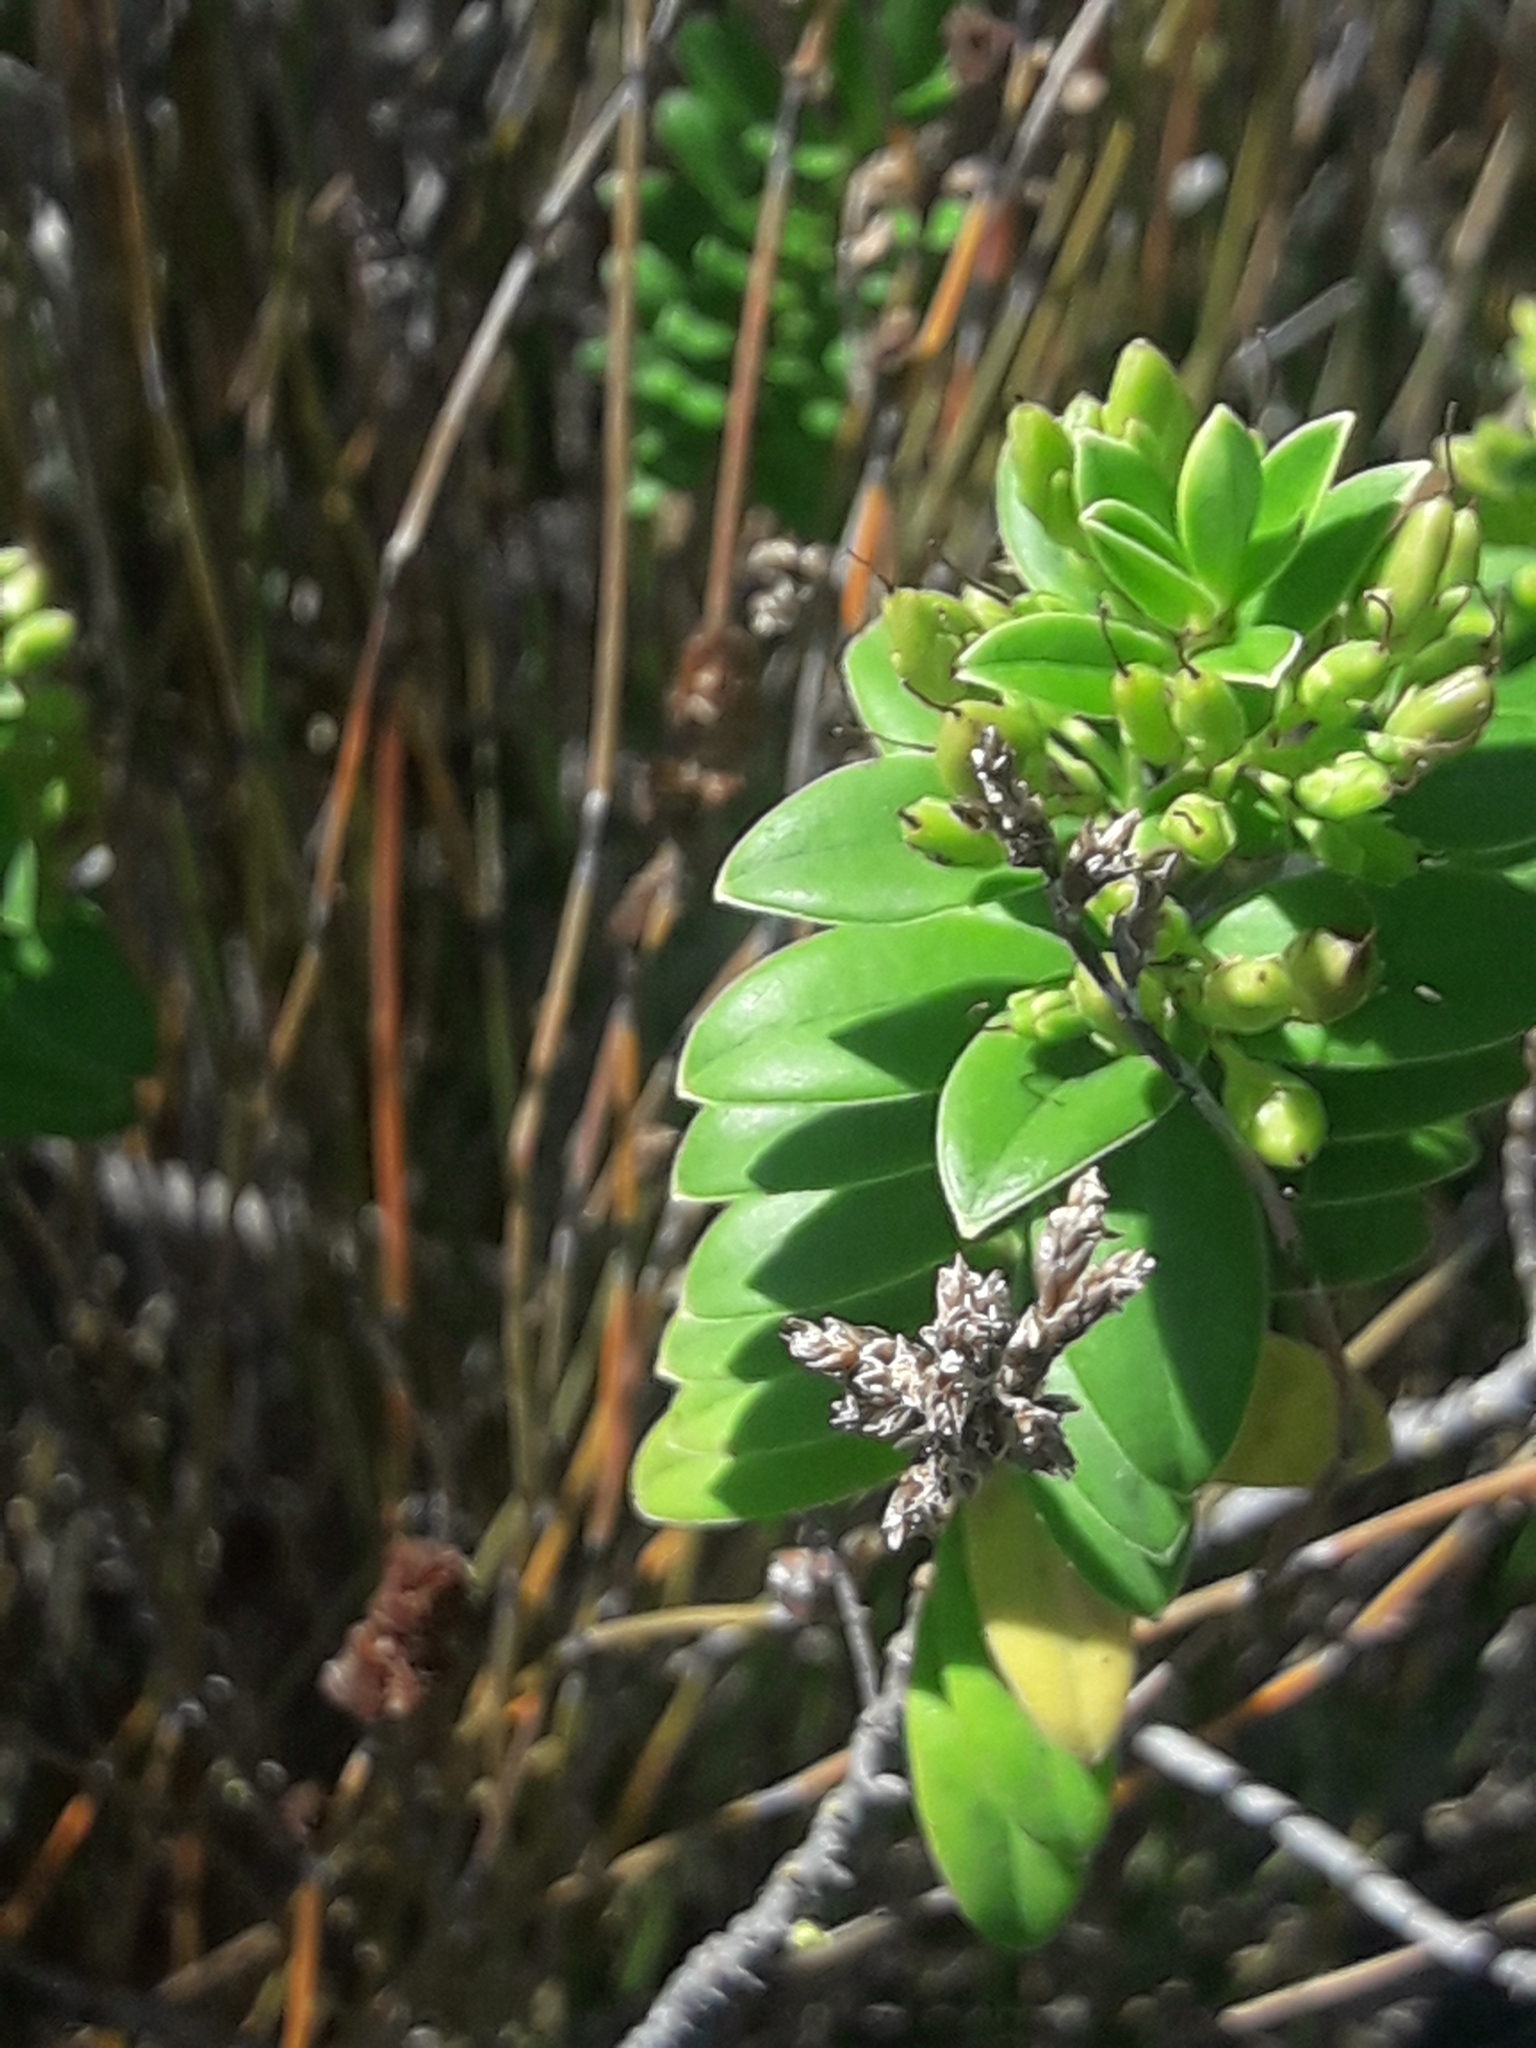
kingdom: Plantae
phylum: Tracheophyta
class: Magnoliopsida
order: Lamiales
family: Plantaginaceae
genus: Veronica
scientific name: Veronica elliptica
